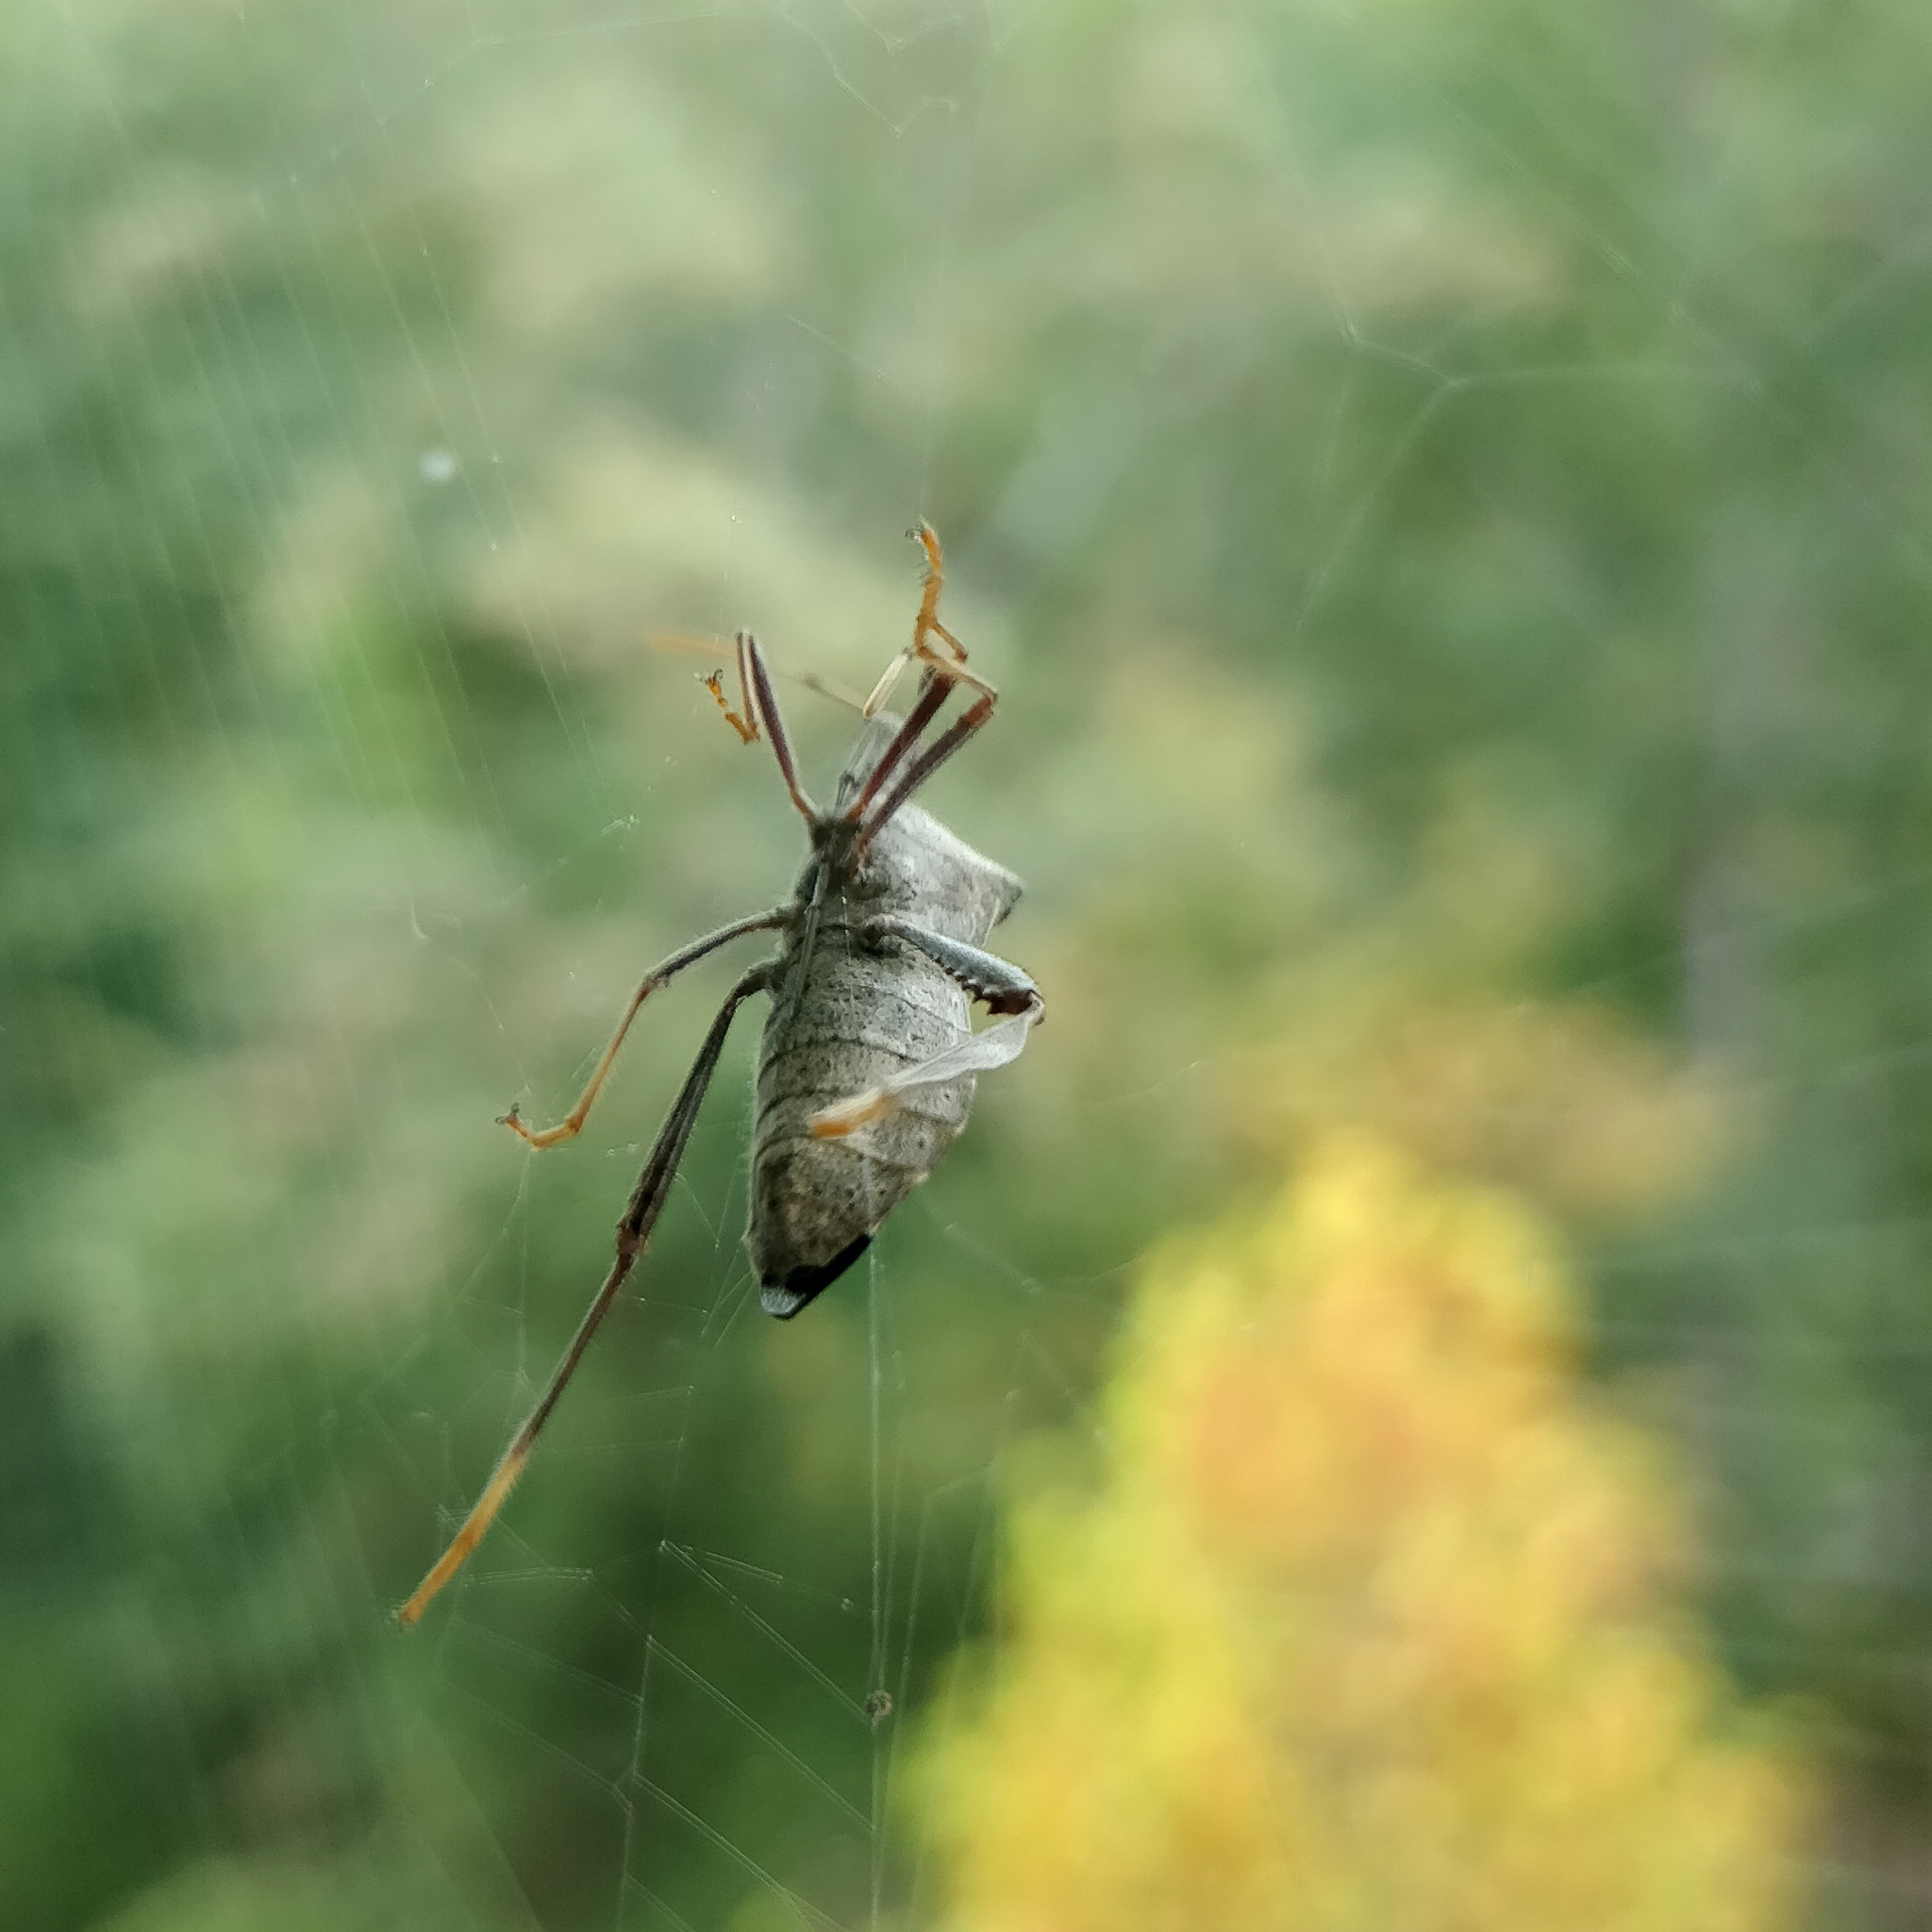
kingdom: Animalia
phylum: Arthropoda
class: Insecta
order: Hemiptera
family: Coreidae
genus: Leptoglossus
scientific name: Leptoglossus oppositus
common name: Northern leaf-footed bug
